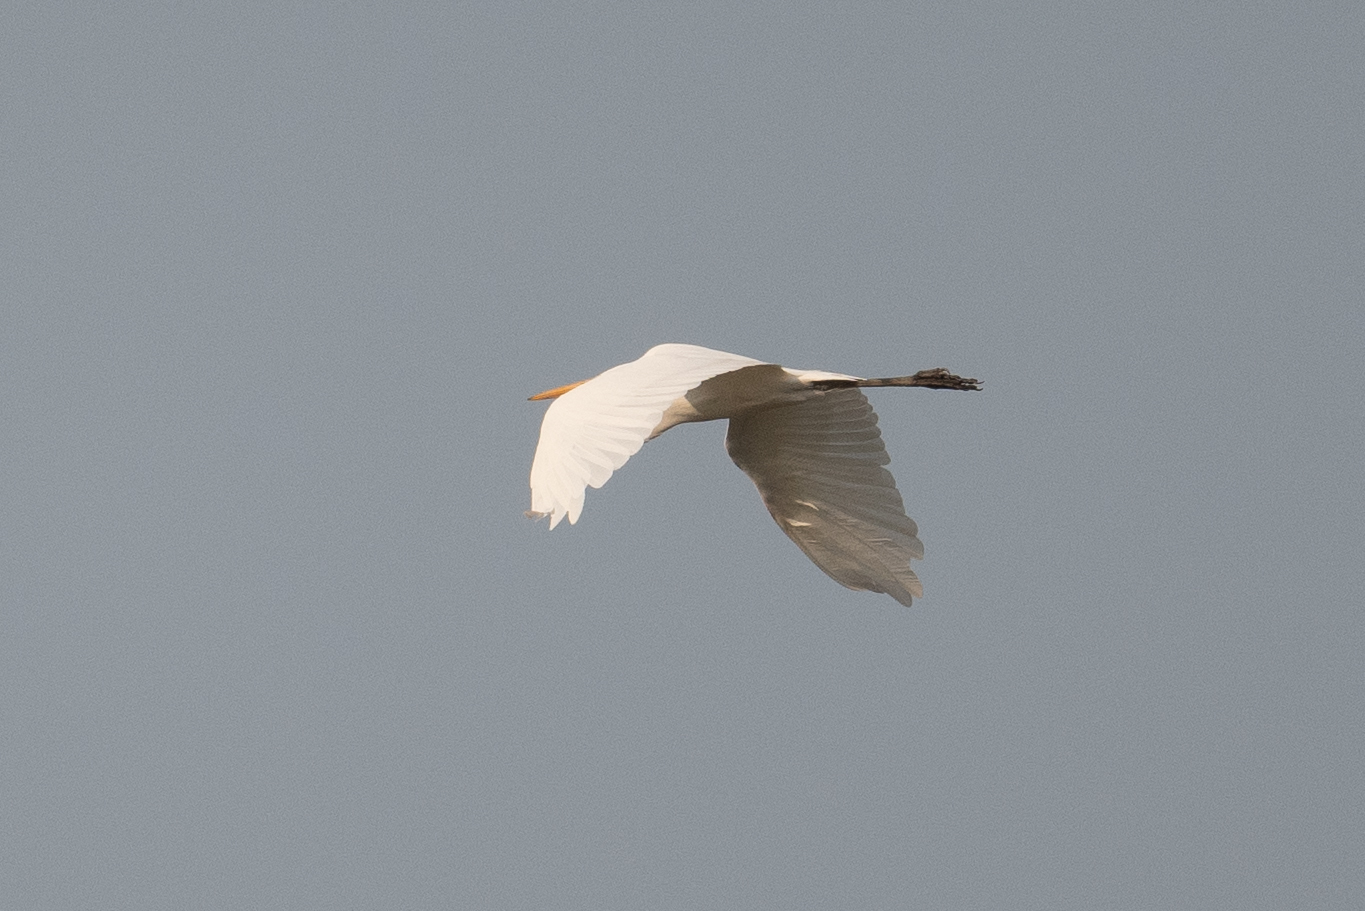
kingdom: Animalia
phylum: Chordata
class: Aves
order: Pelecaniformes
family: Ardeidae
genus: Ardea
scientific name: Ardea alba
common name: Great egret
